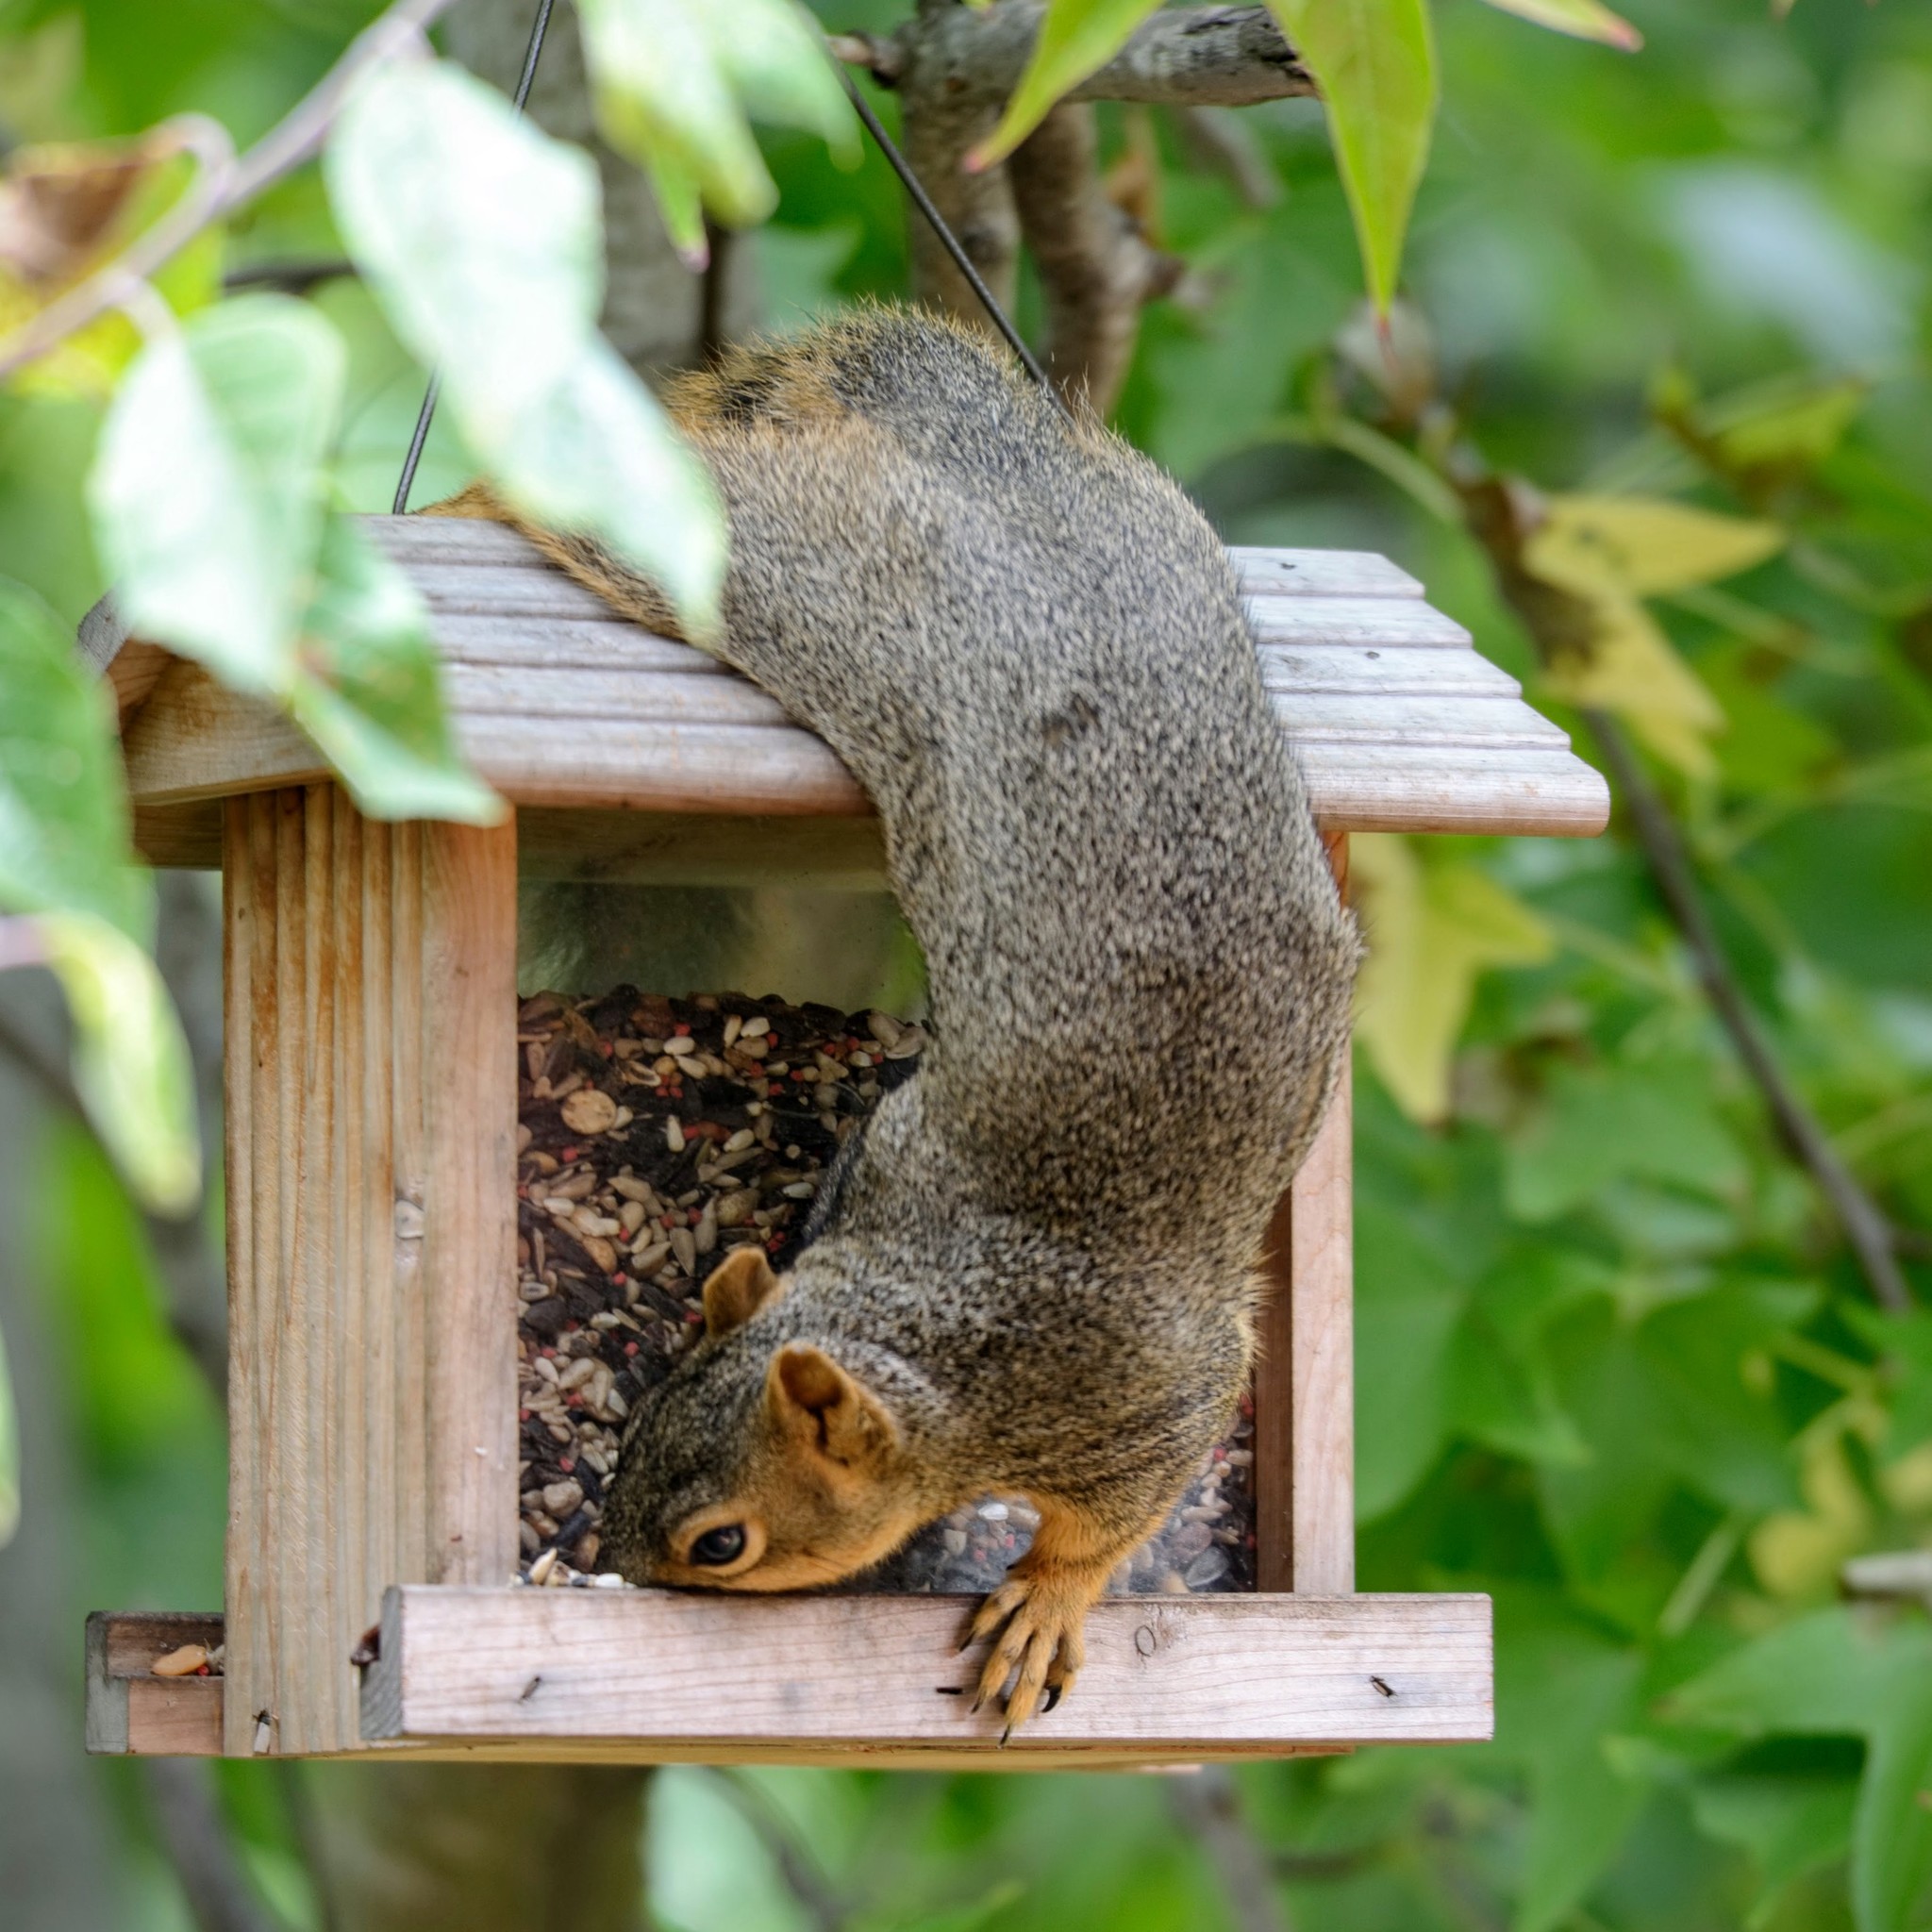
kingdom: Animalia
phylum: Chordata
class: Mammalia
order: Rodentia
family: Sciuridae
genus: Sciurus
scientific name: Sciurus niger
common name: Fox squirrel
